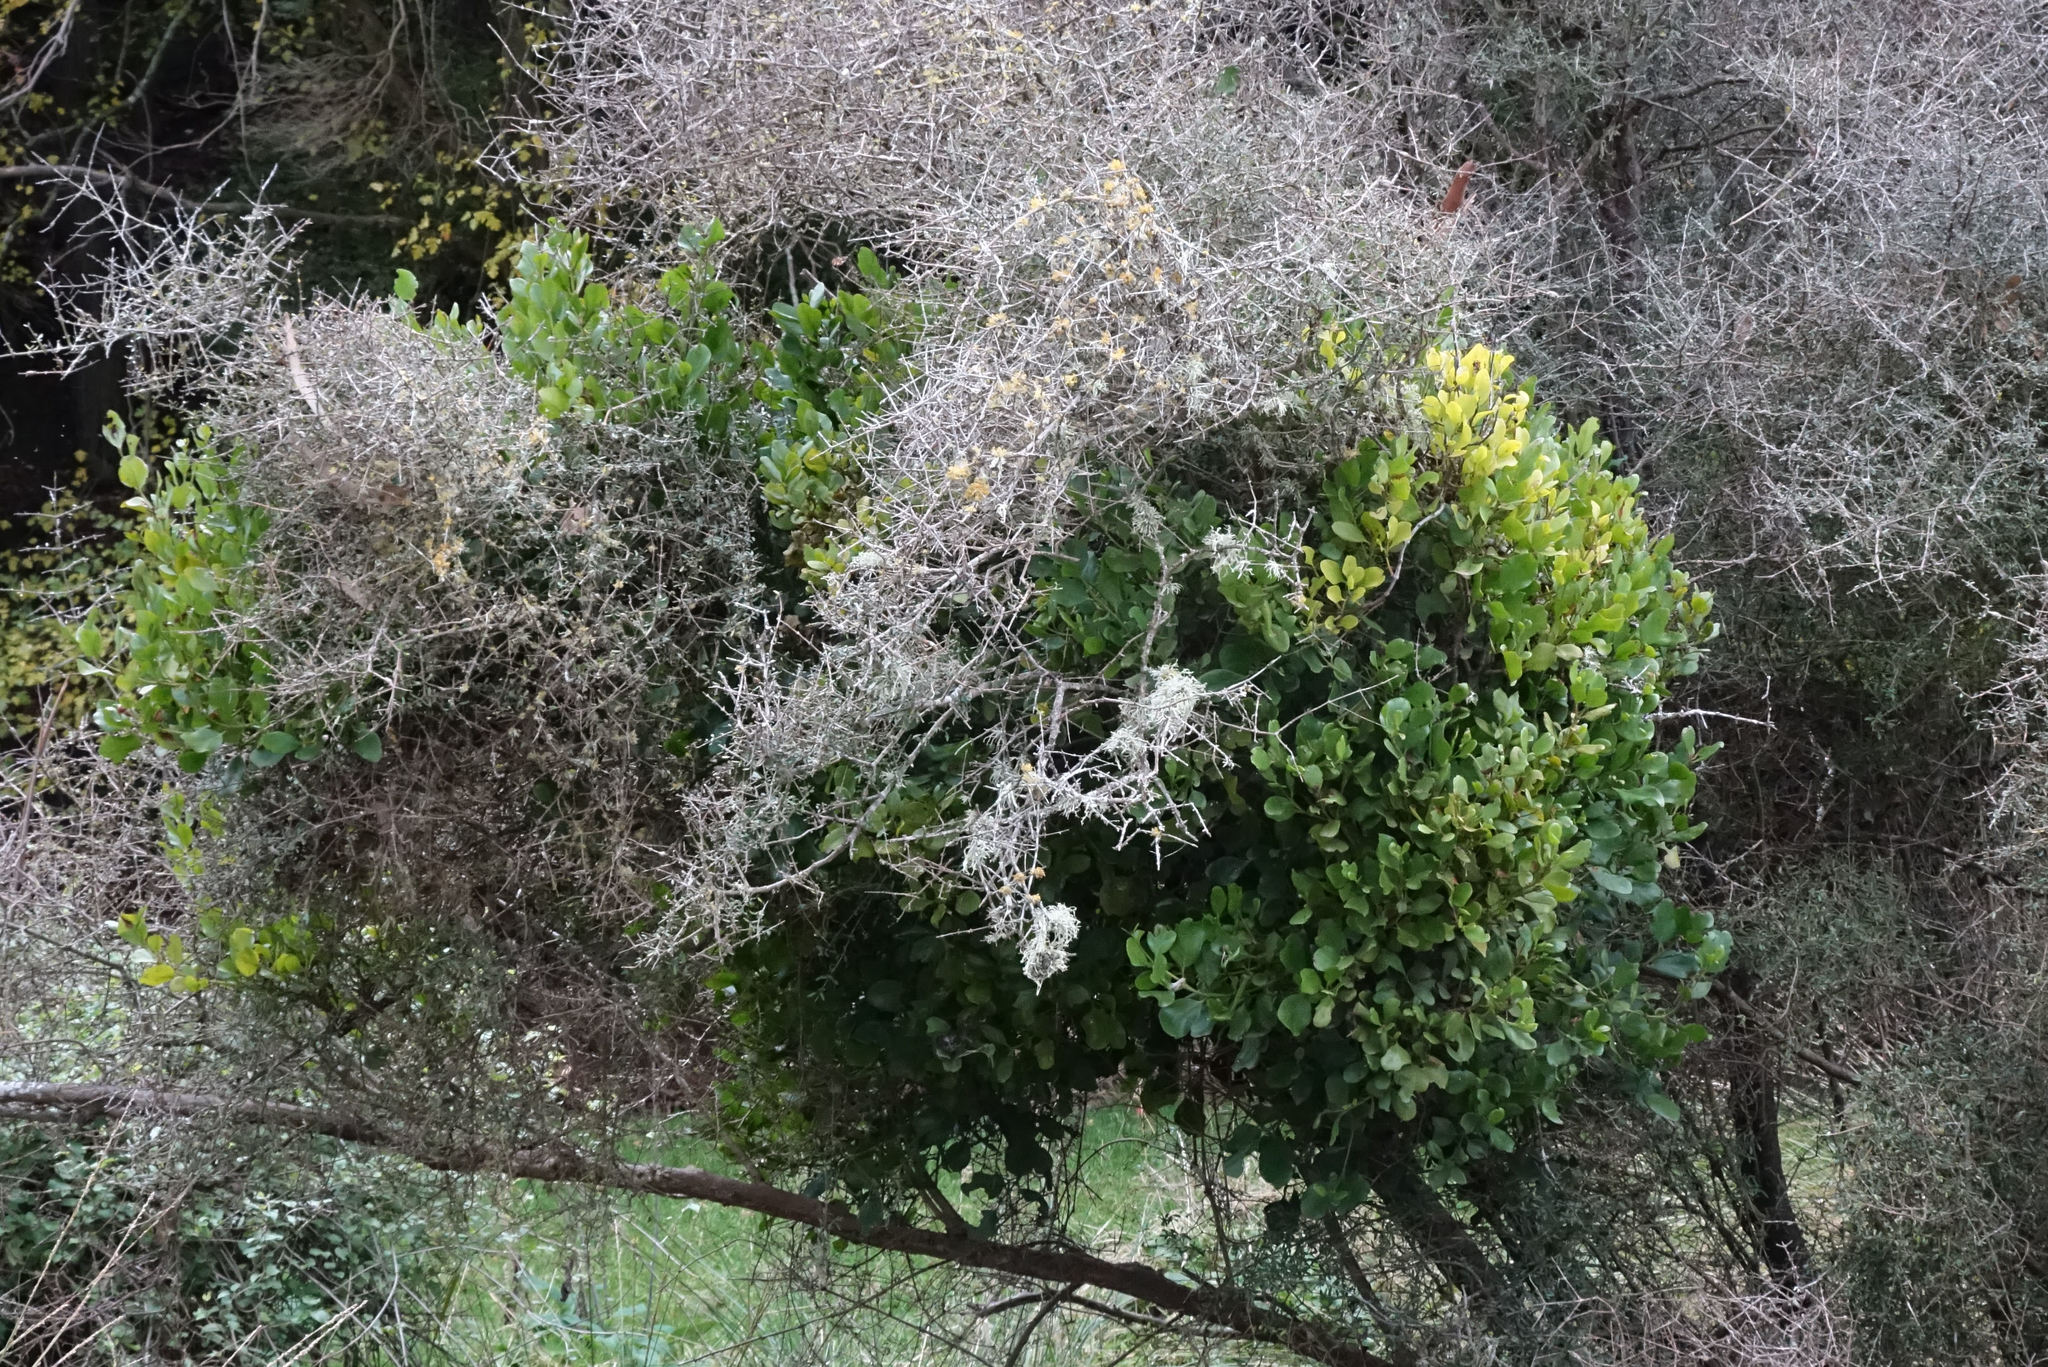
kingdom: Plantae
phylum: Tracheophyta
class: Magnoliopsida
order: Santalales
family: Loranthaceae
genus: Ileostylus
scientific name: Ileostylus micranthus
